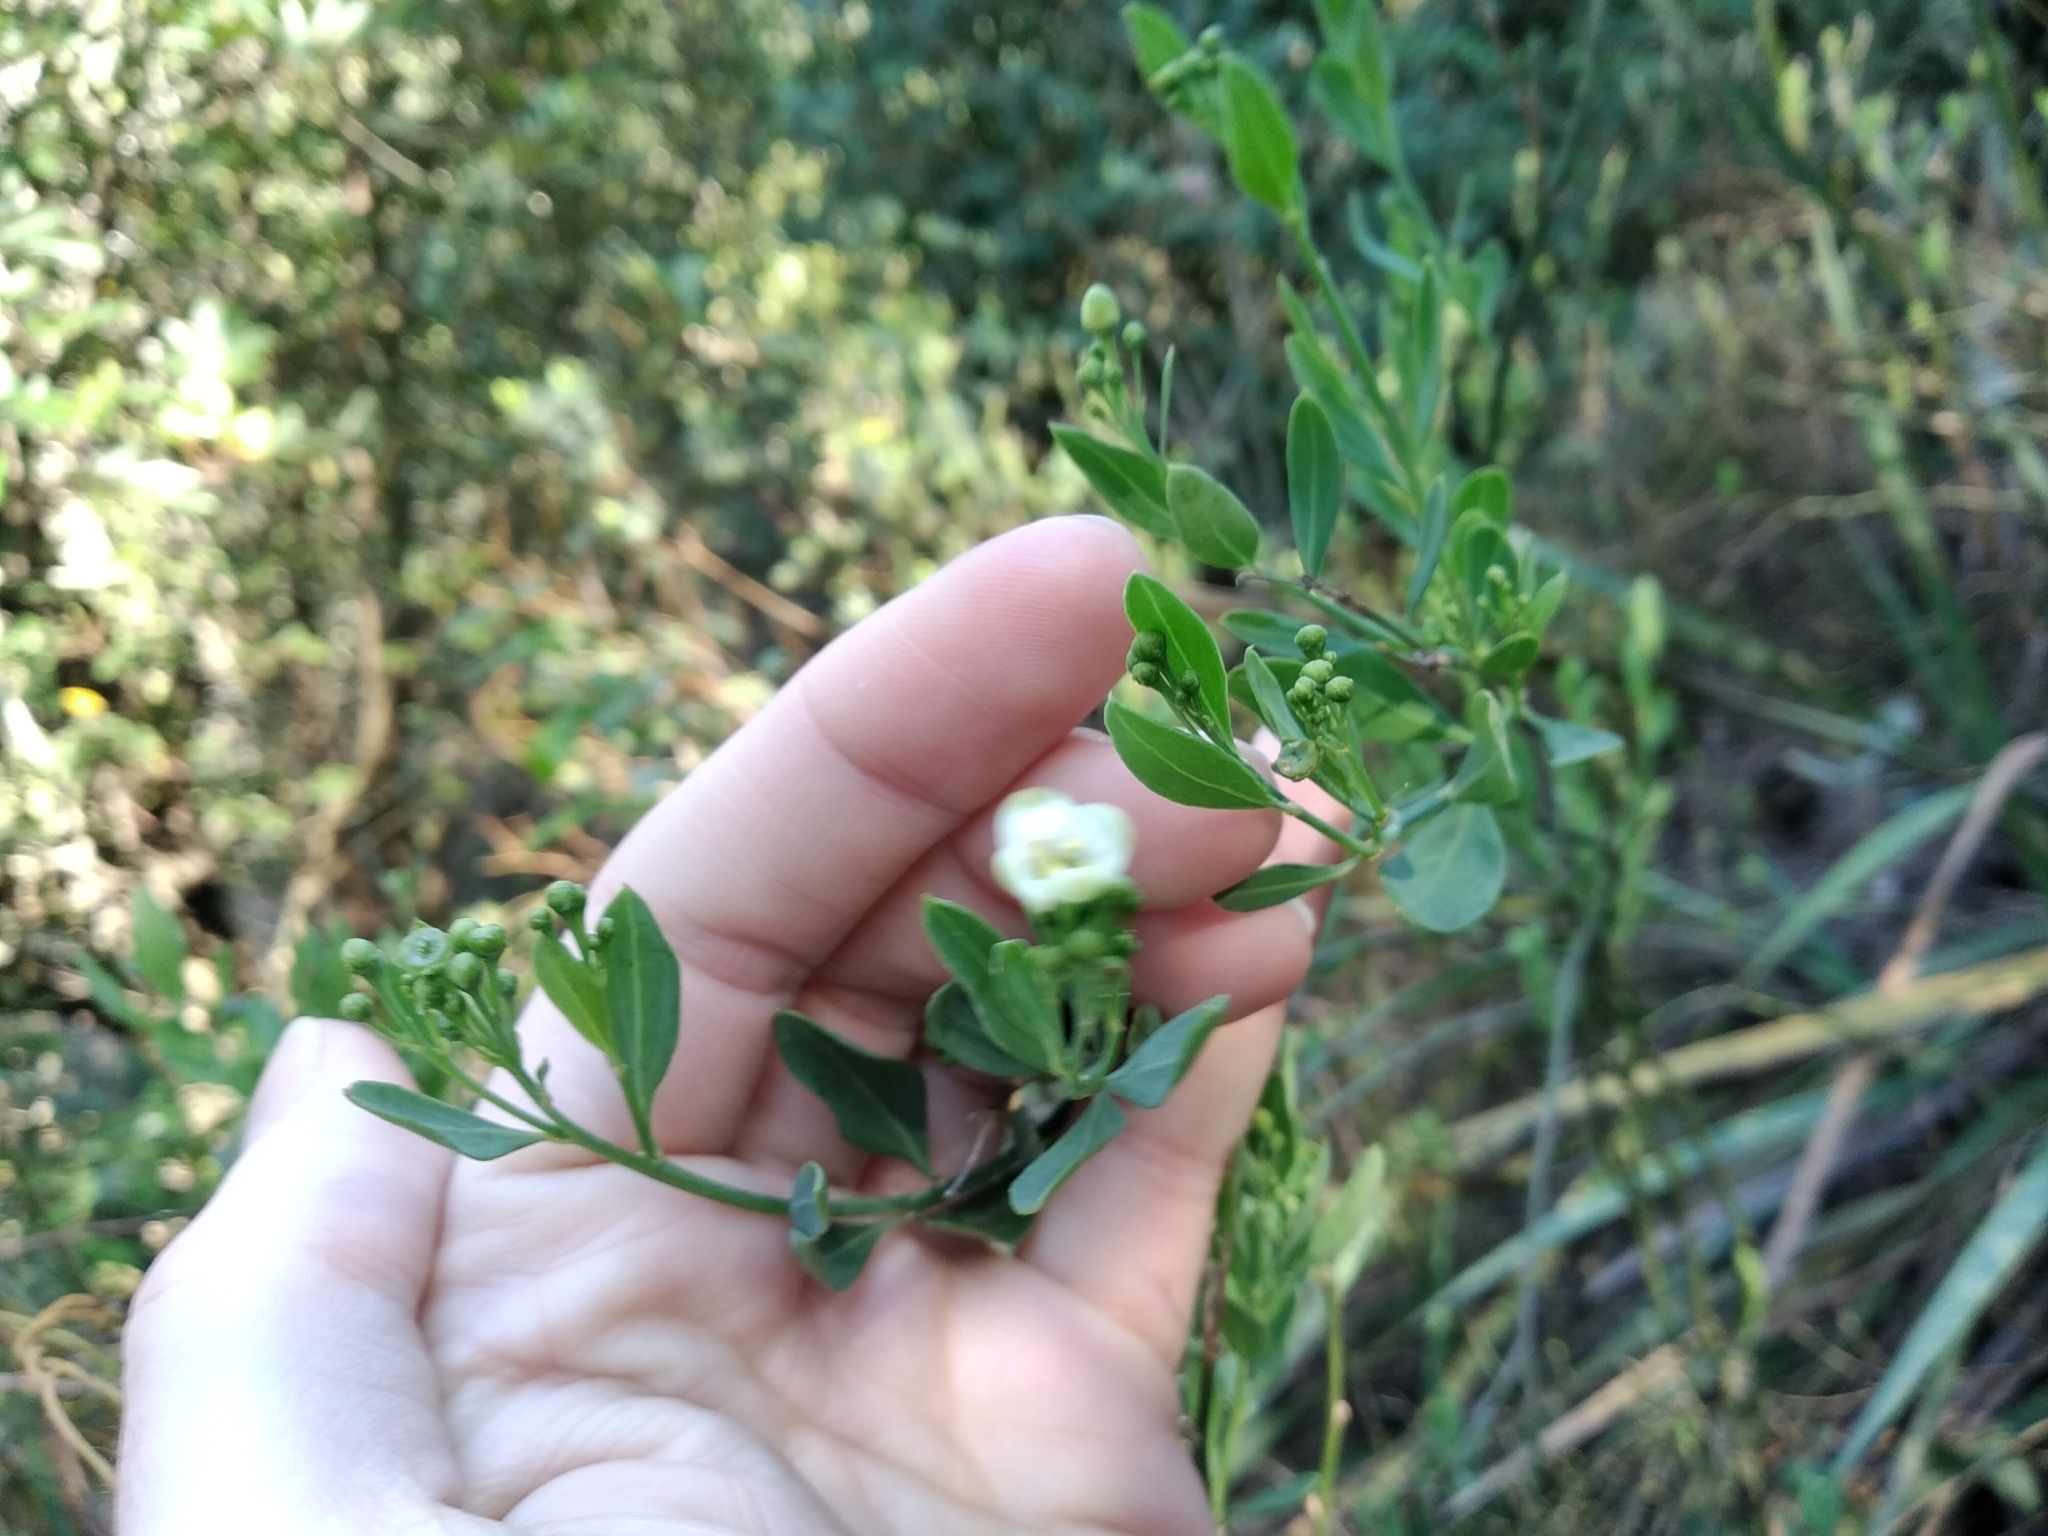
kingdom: Plantae
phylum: Tracheophyta
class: Magnoliopsida
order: Solanales
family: Montiniaceae
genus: Montinia
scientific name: Montinia caryophyllacea
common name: Wild clove-bush
